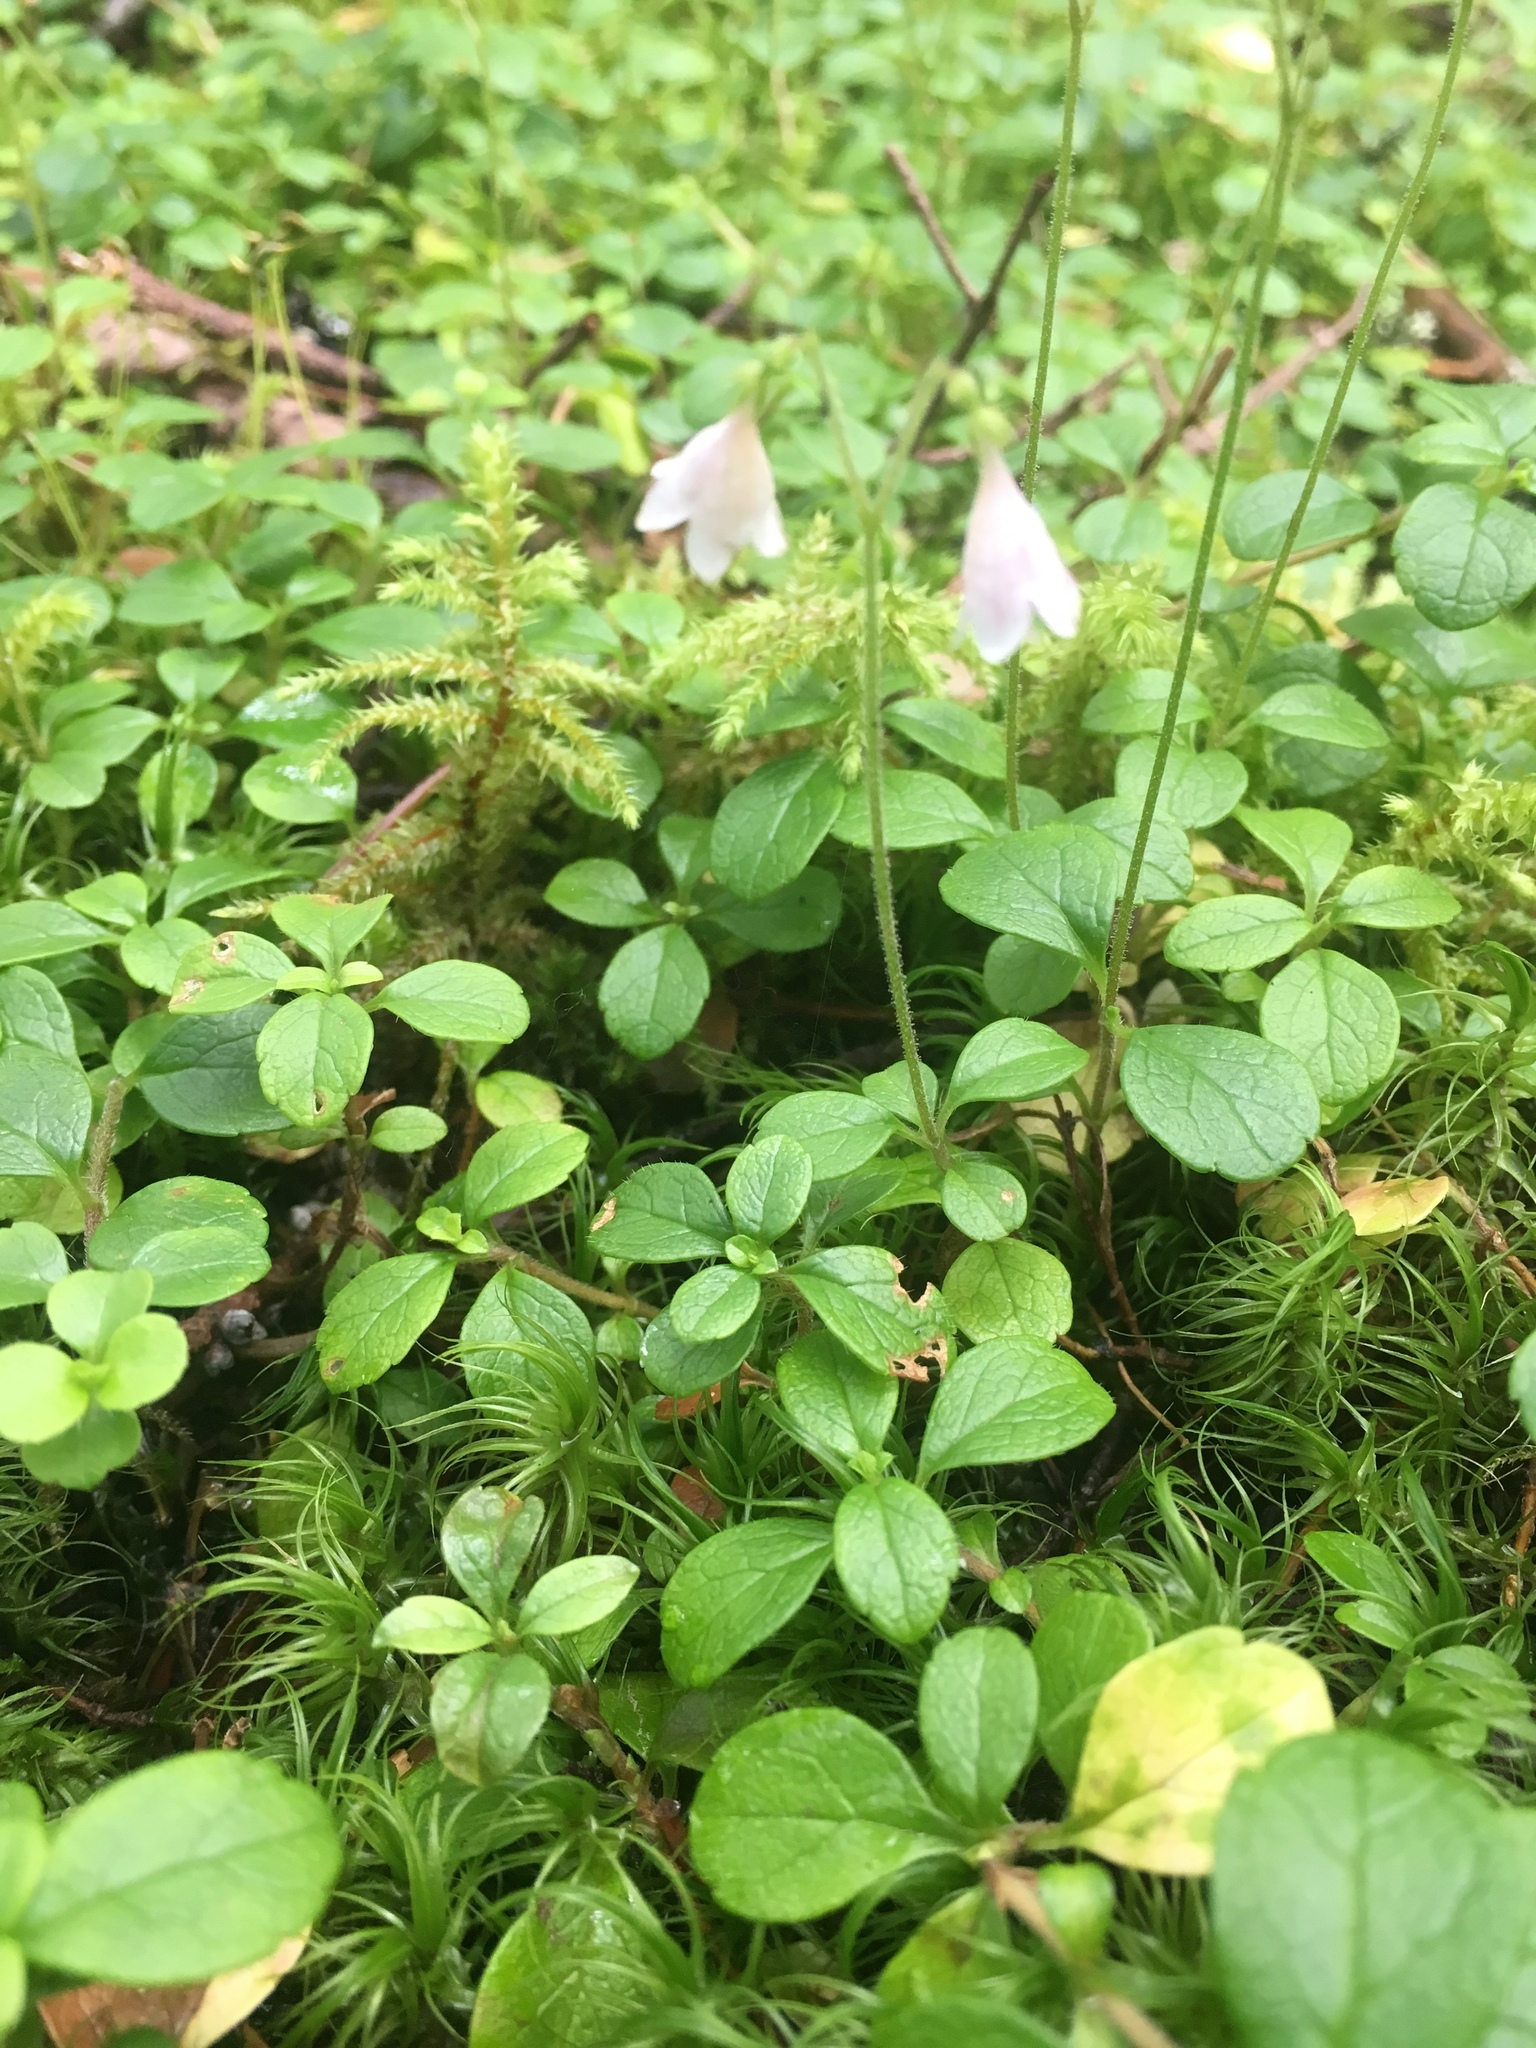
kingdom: Plantae
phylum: Tracheophyta
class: Magnoliopsida
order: Dipsacales
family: Caprifoliaceae
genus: Linnaea
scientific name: Linnaea borealis
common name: Twinflower
